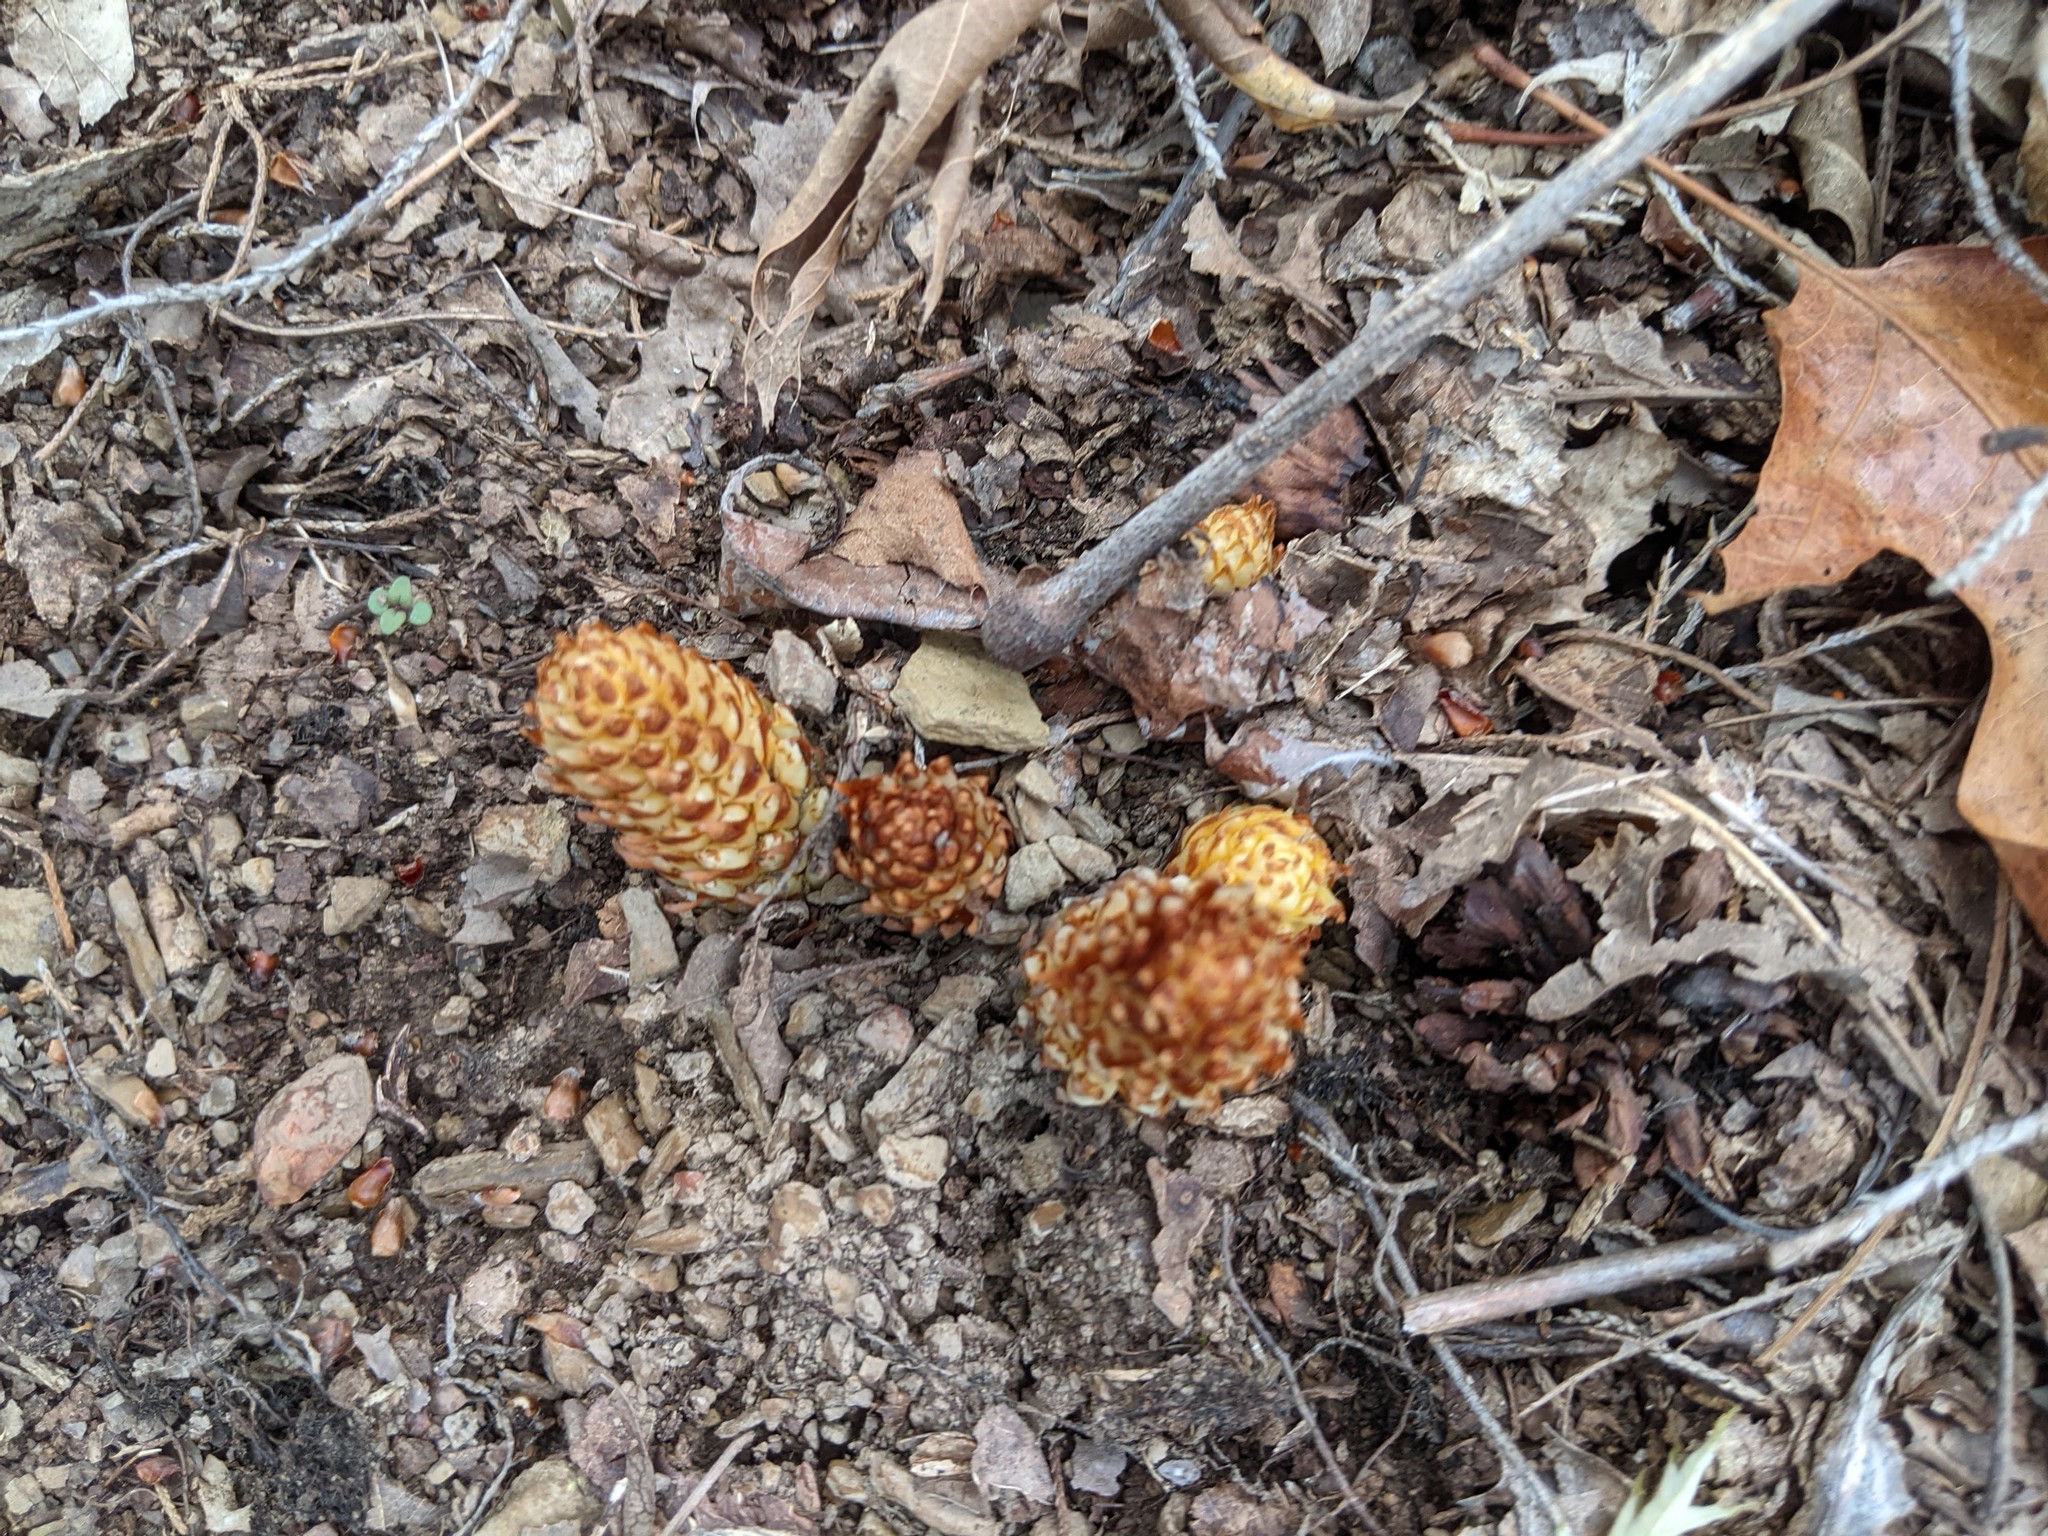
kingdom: Plantae
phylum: Tracheophyta
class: Magnoliopsida
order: Lamiales
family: Orobanchaceae
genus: Conopholis
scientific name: Conopholis americana
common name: American cancer-root
